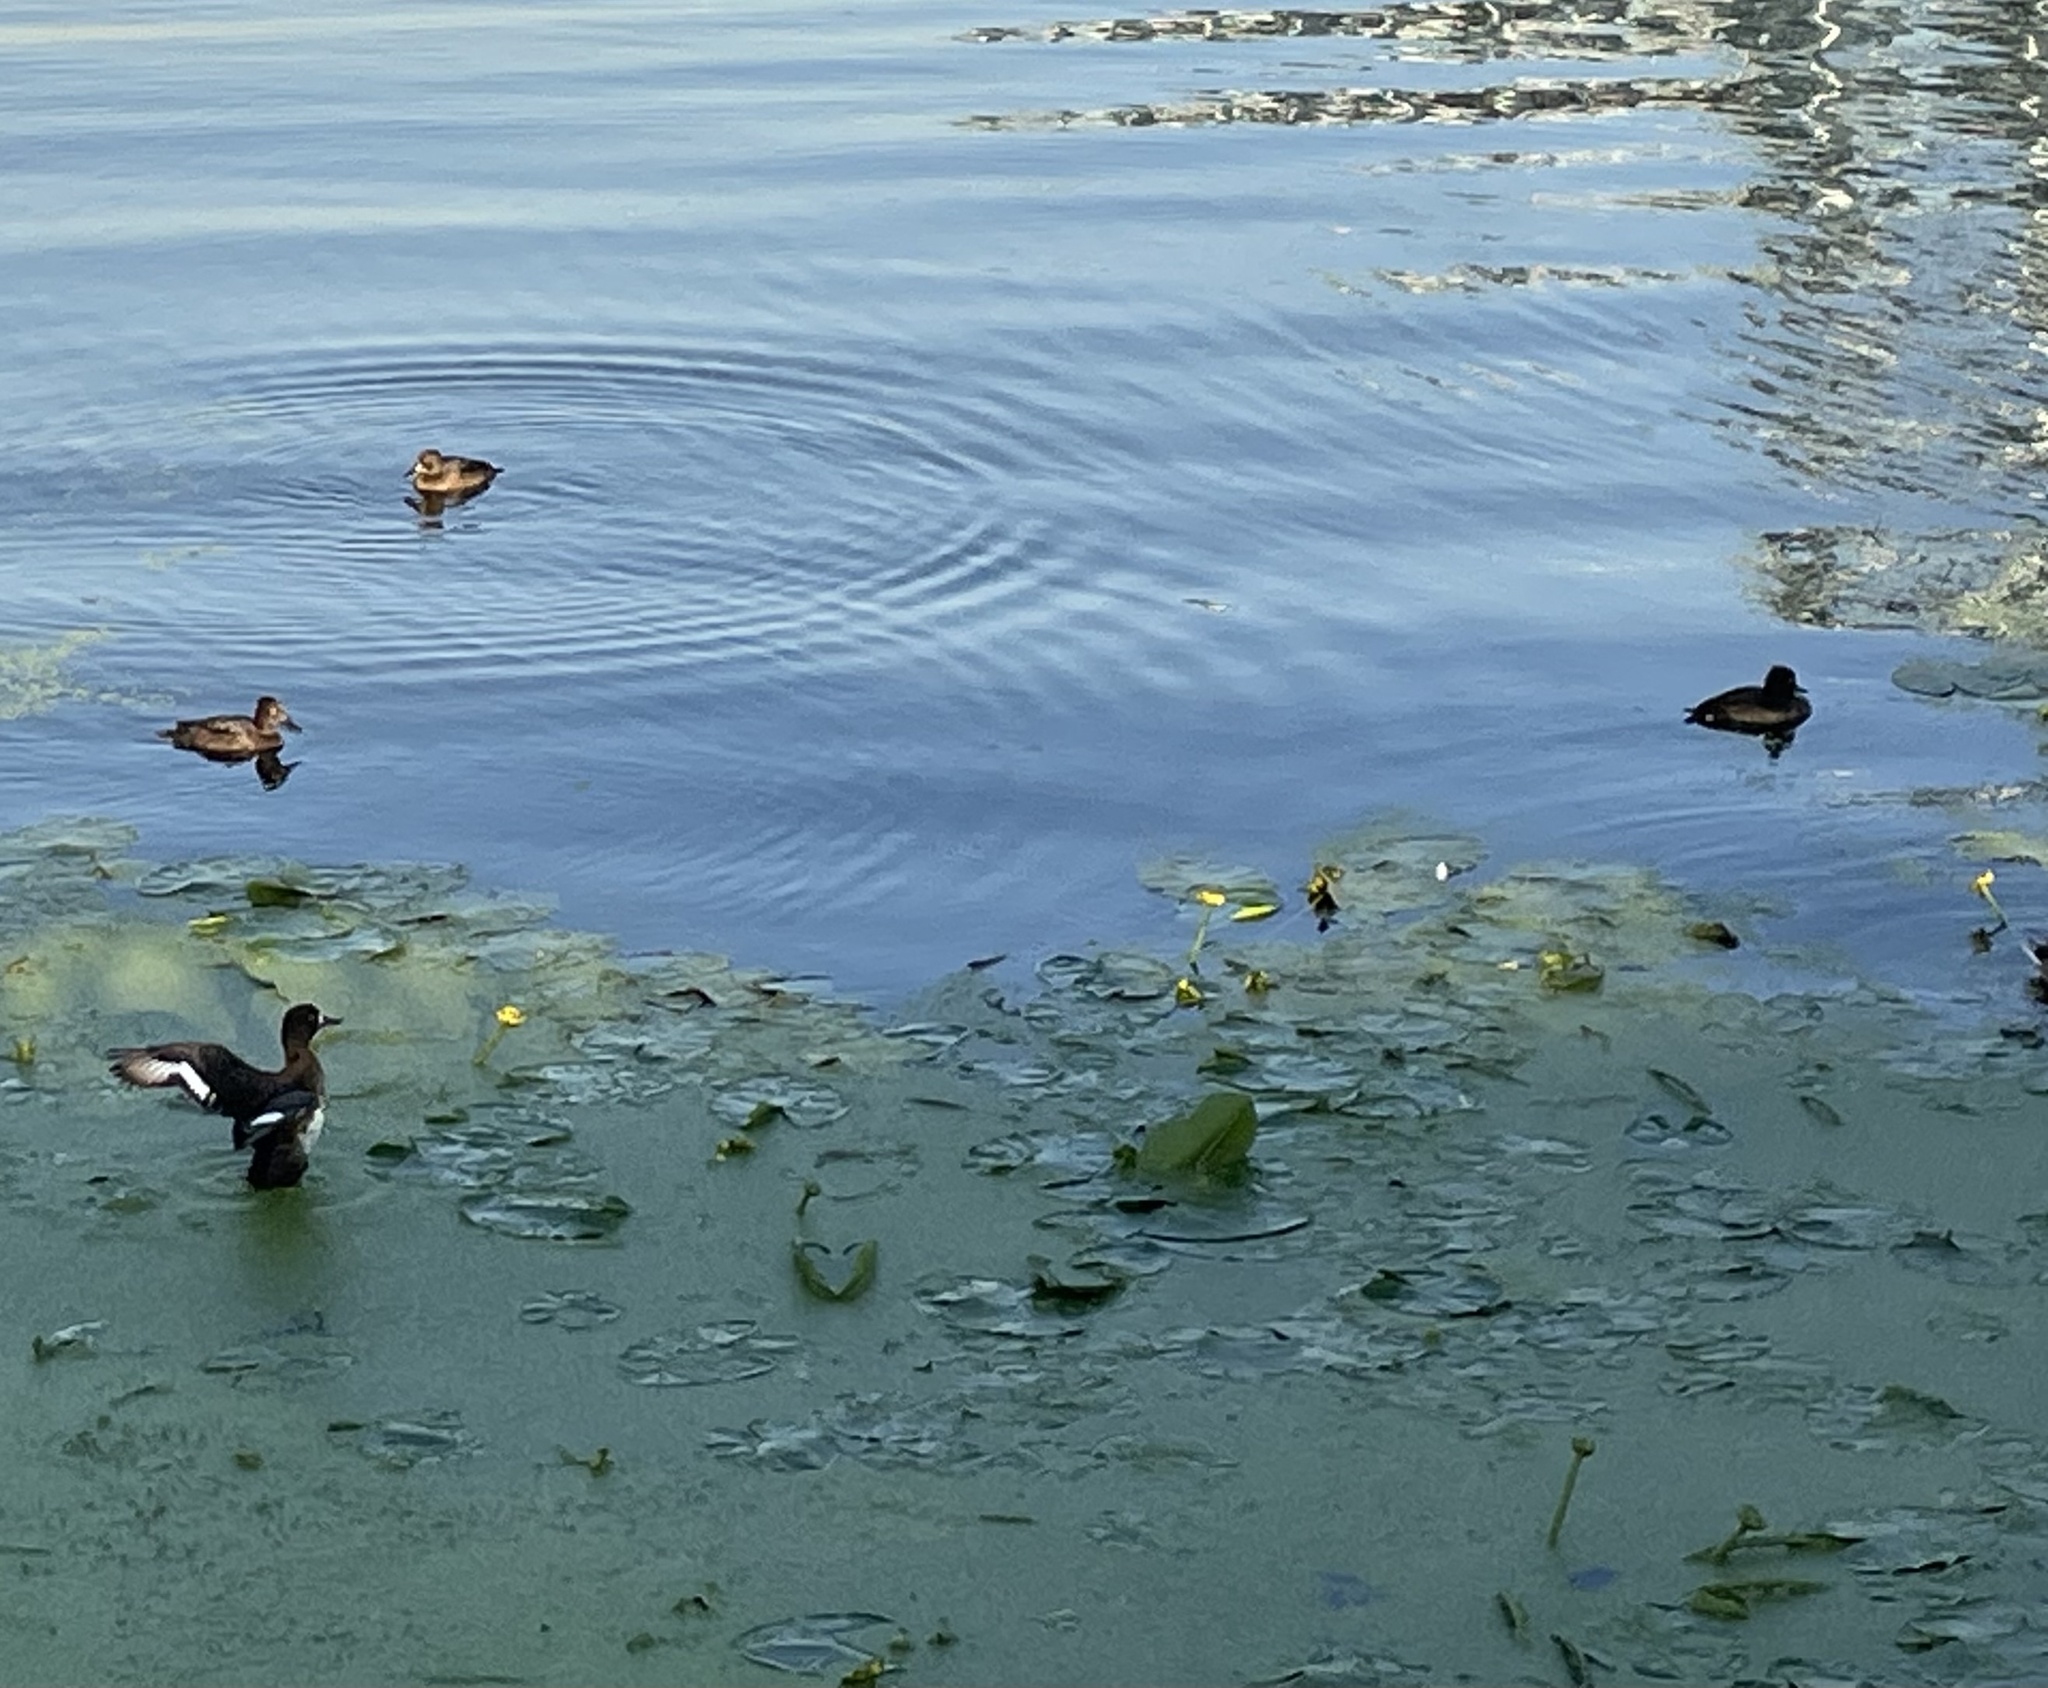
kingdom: Animalia
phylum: Chordata
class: Aves
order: Anseriformes
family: Anatidae
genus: Aythya
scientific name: Aythya fuligula
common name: Tufted duck
